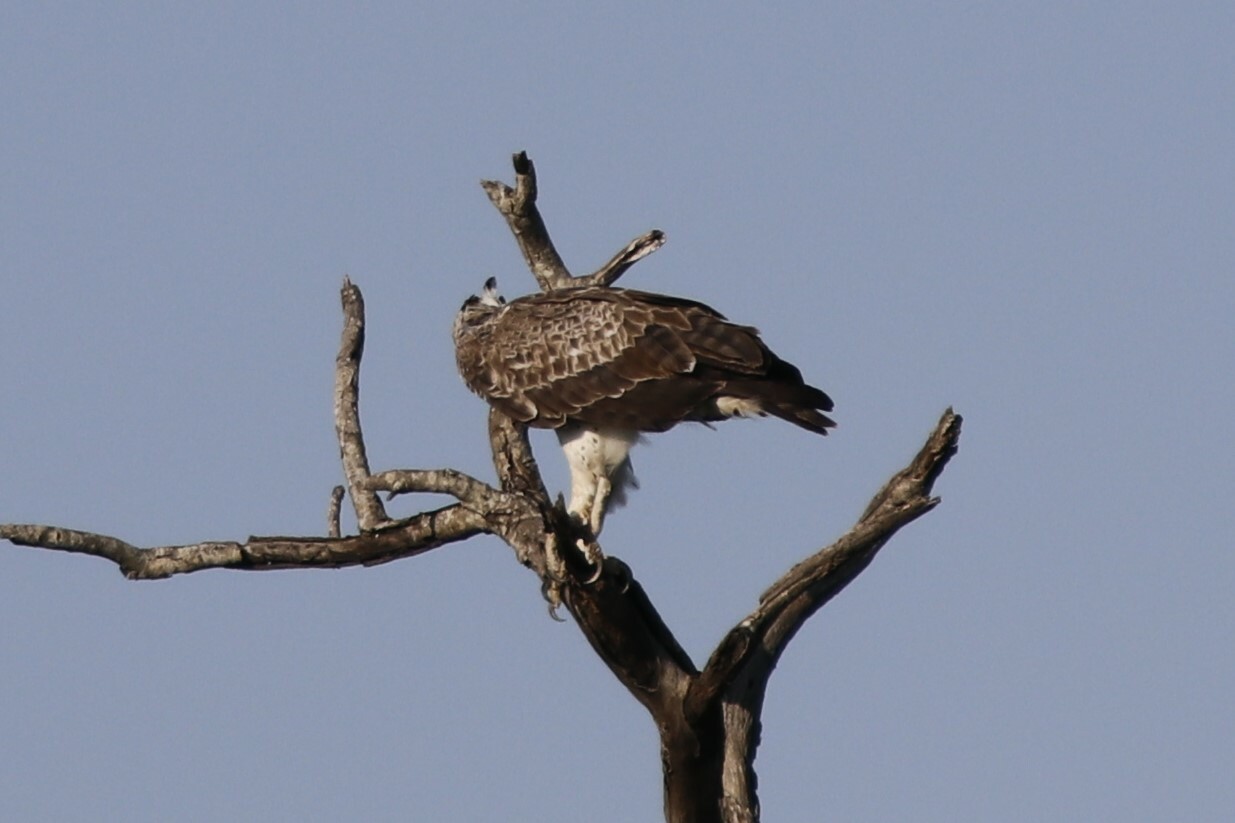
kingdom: Animalia
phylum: Chordata
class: Aves
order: Accipitriformes
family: Accipitridae
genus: Polemaetus
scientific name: Polemaetus bellicosus
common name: Martial eagle
